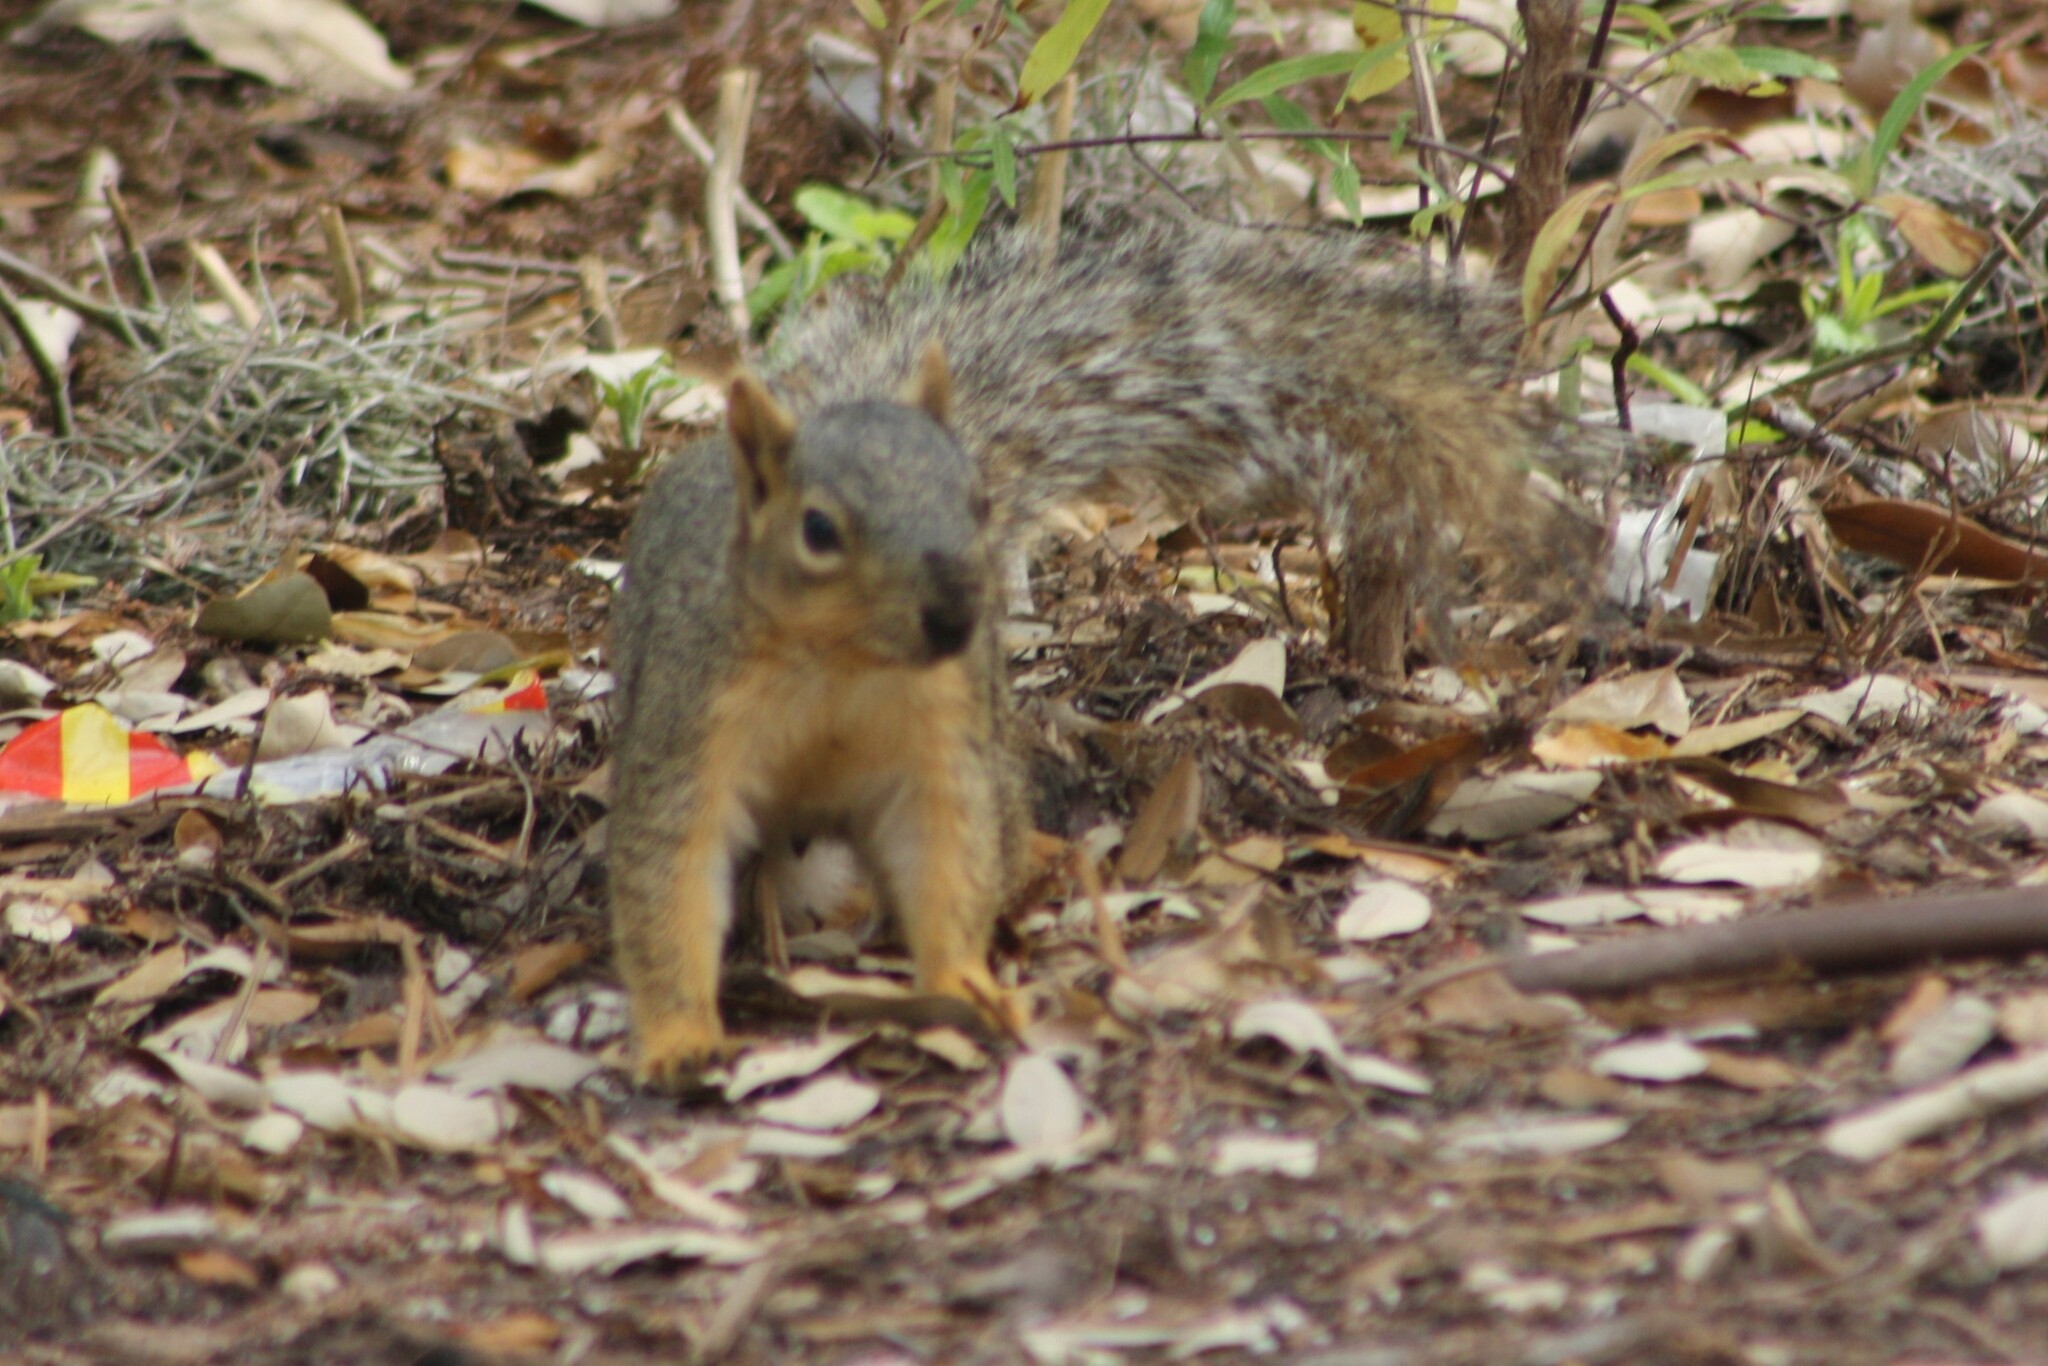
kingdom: Animalia
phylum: Chordata
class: Mammalia
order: Rodentia
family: Sciuridae
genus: Sciurus
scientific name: Sciurus niger
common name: Fox squirrel
